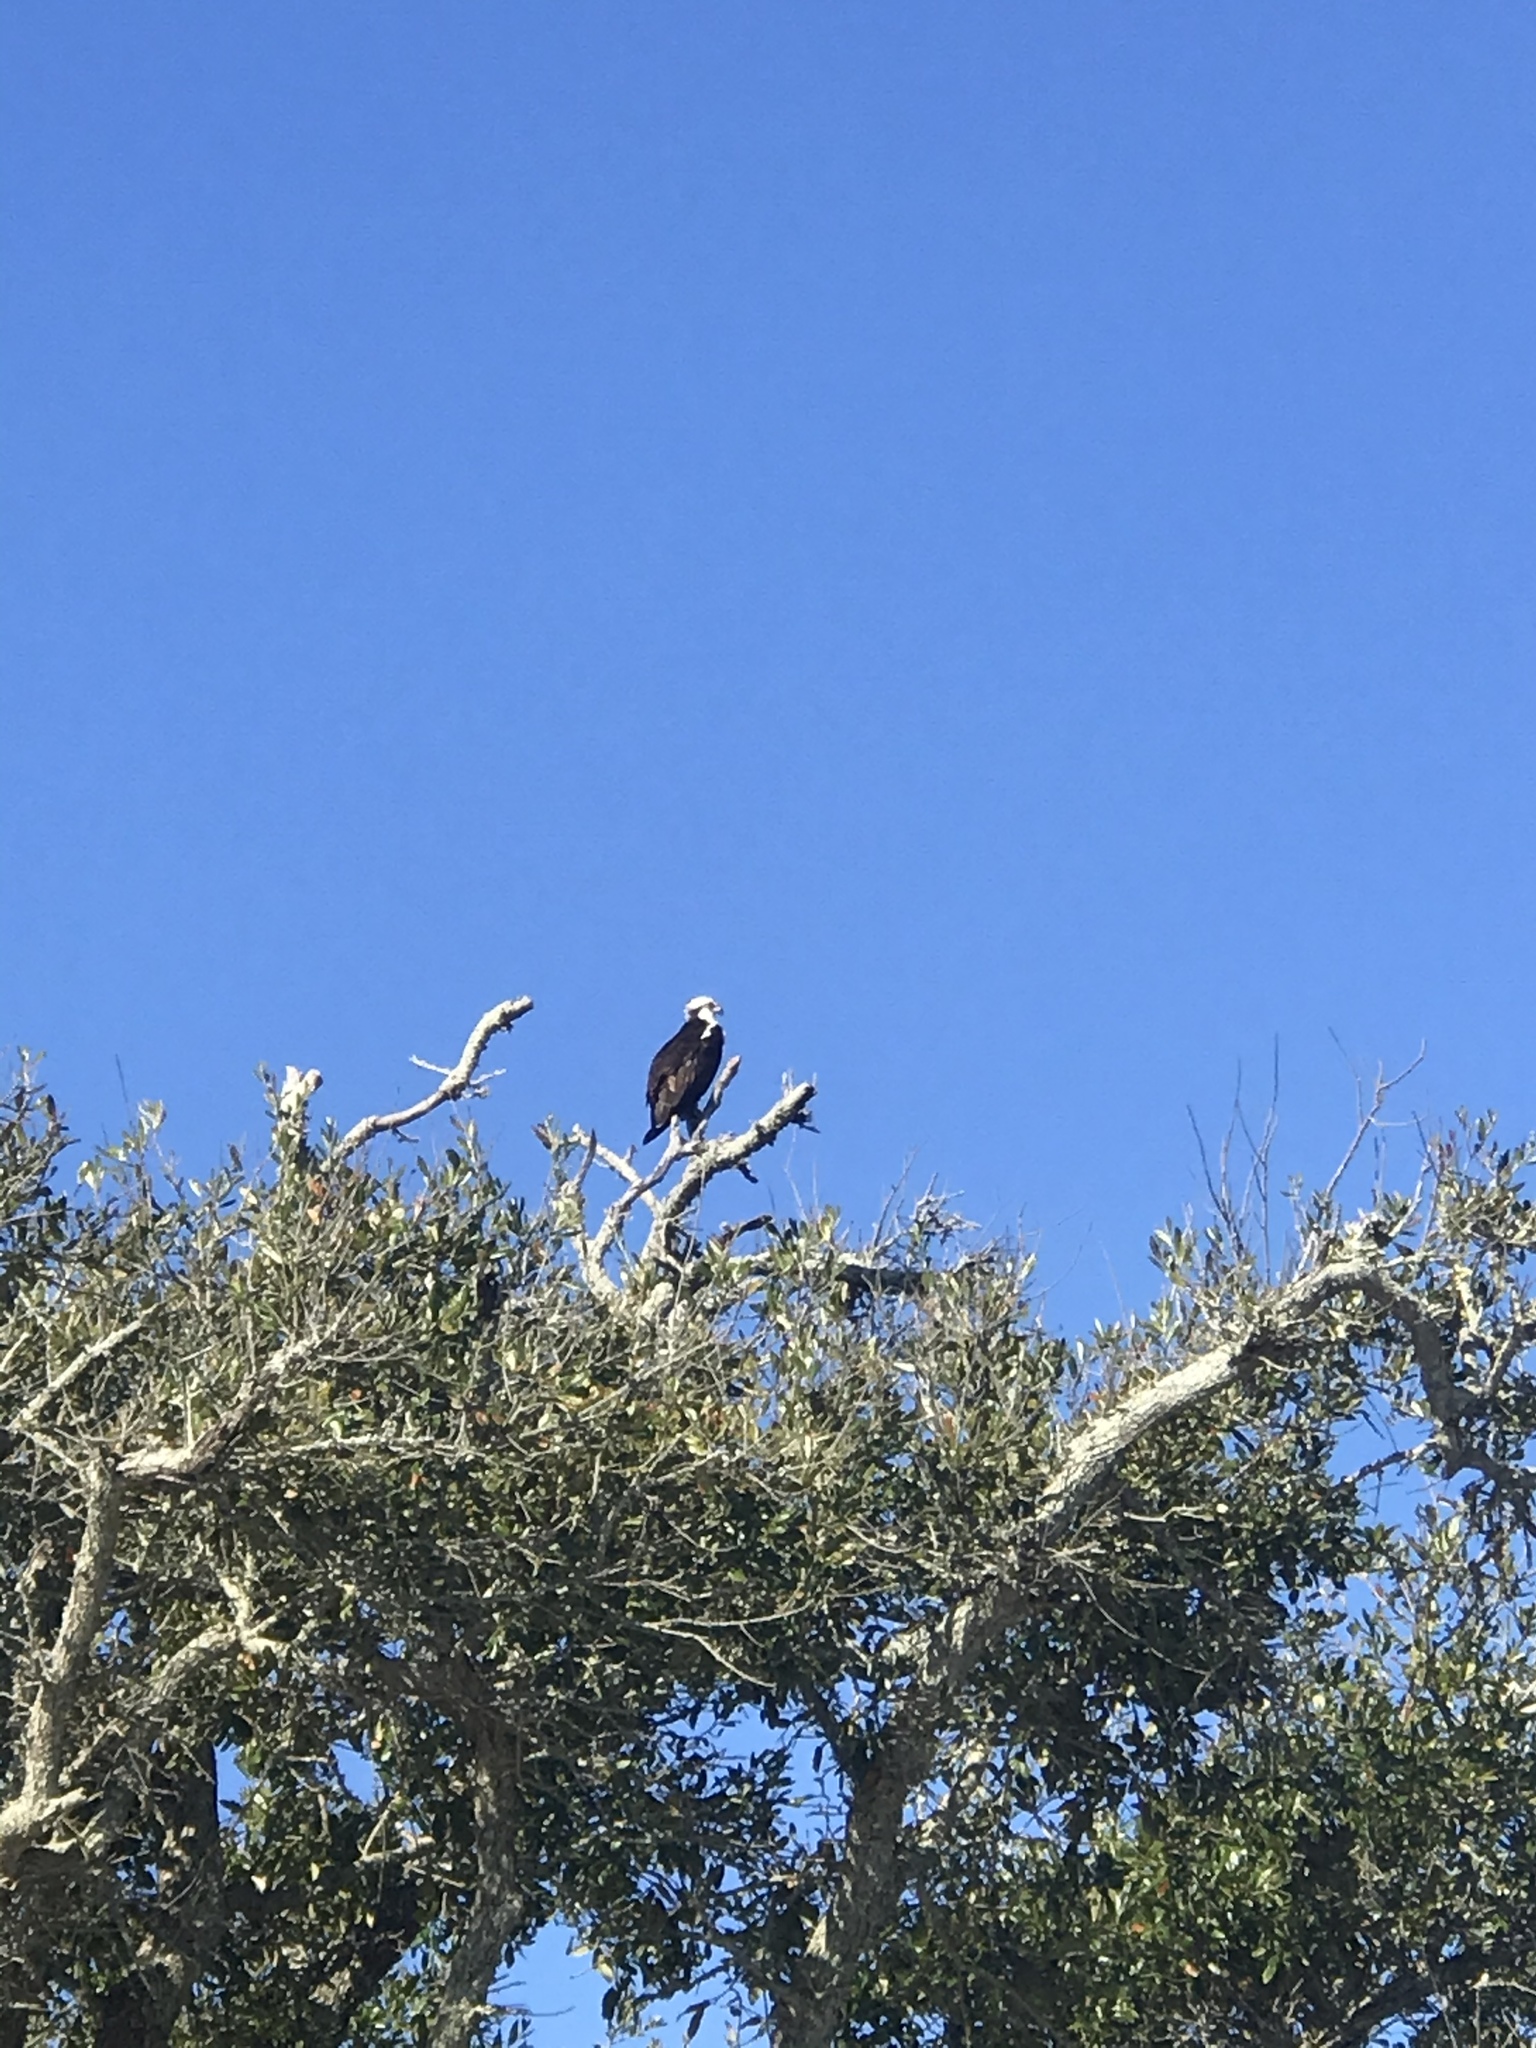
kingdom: Animalia
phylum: Chordata
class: Aves
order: Accipitriformes
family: Pandionidae
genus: Pandion
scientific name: Pandion haliaetus
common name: Osprey
